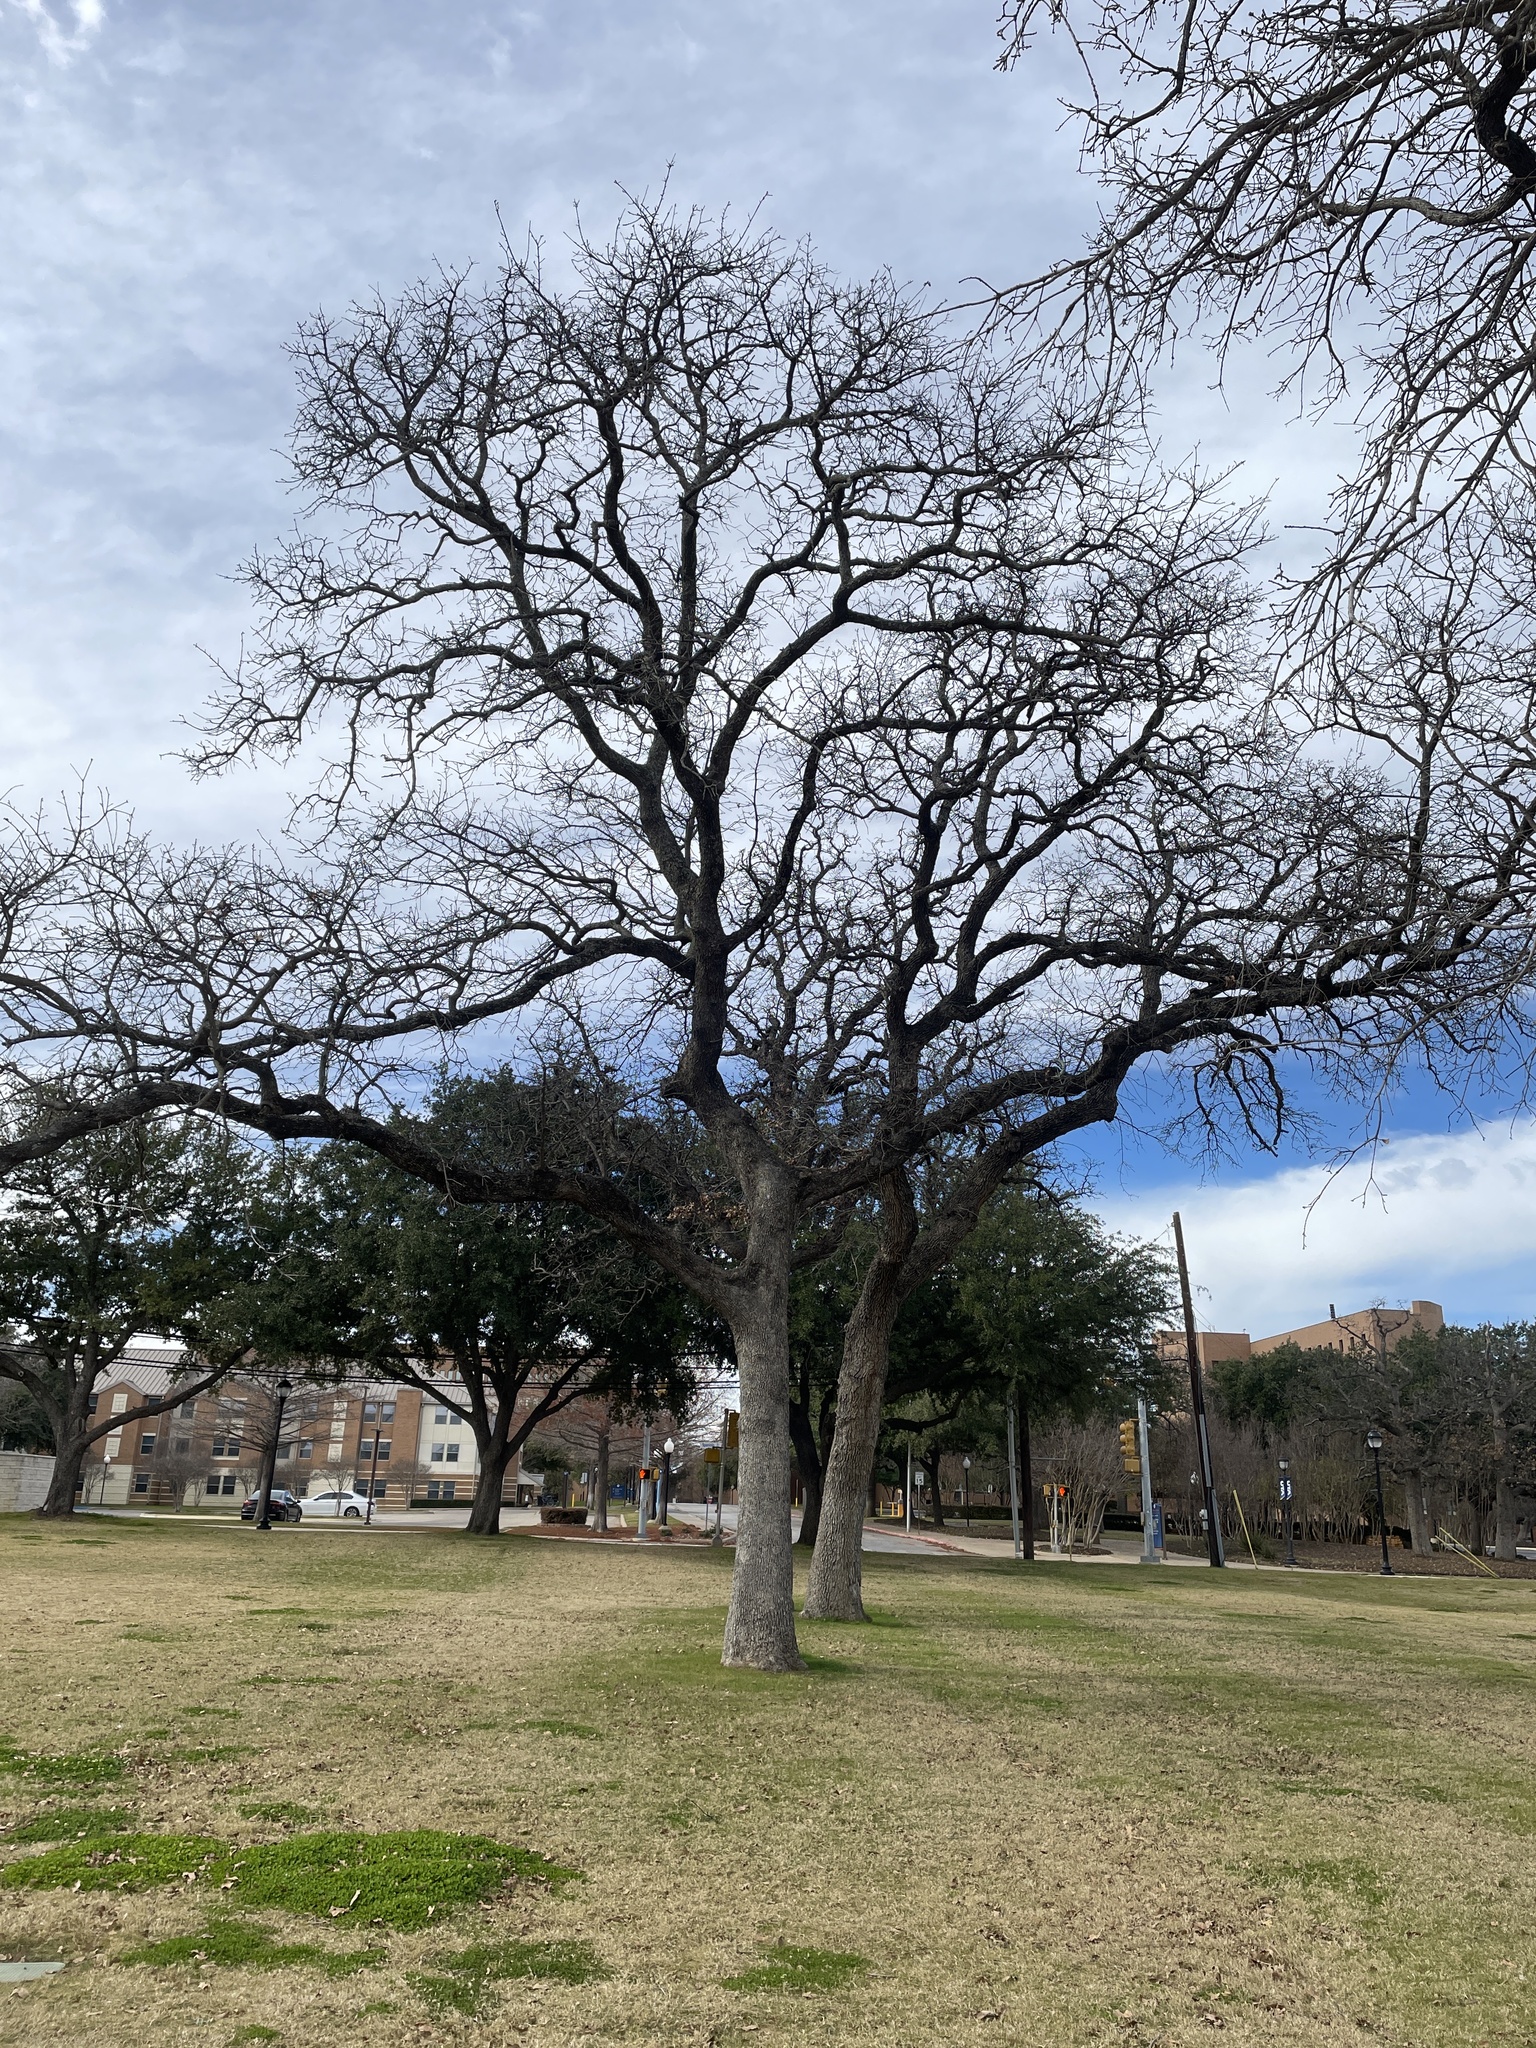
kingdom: Plantae
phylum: Tracheophyta
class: Magnoliopsida
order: Fagales
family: Fagaceae
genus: Quercus
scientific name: Quercus stellata
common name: Post oak
